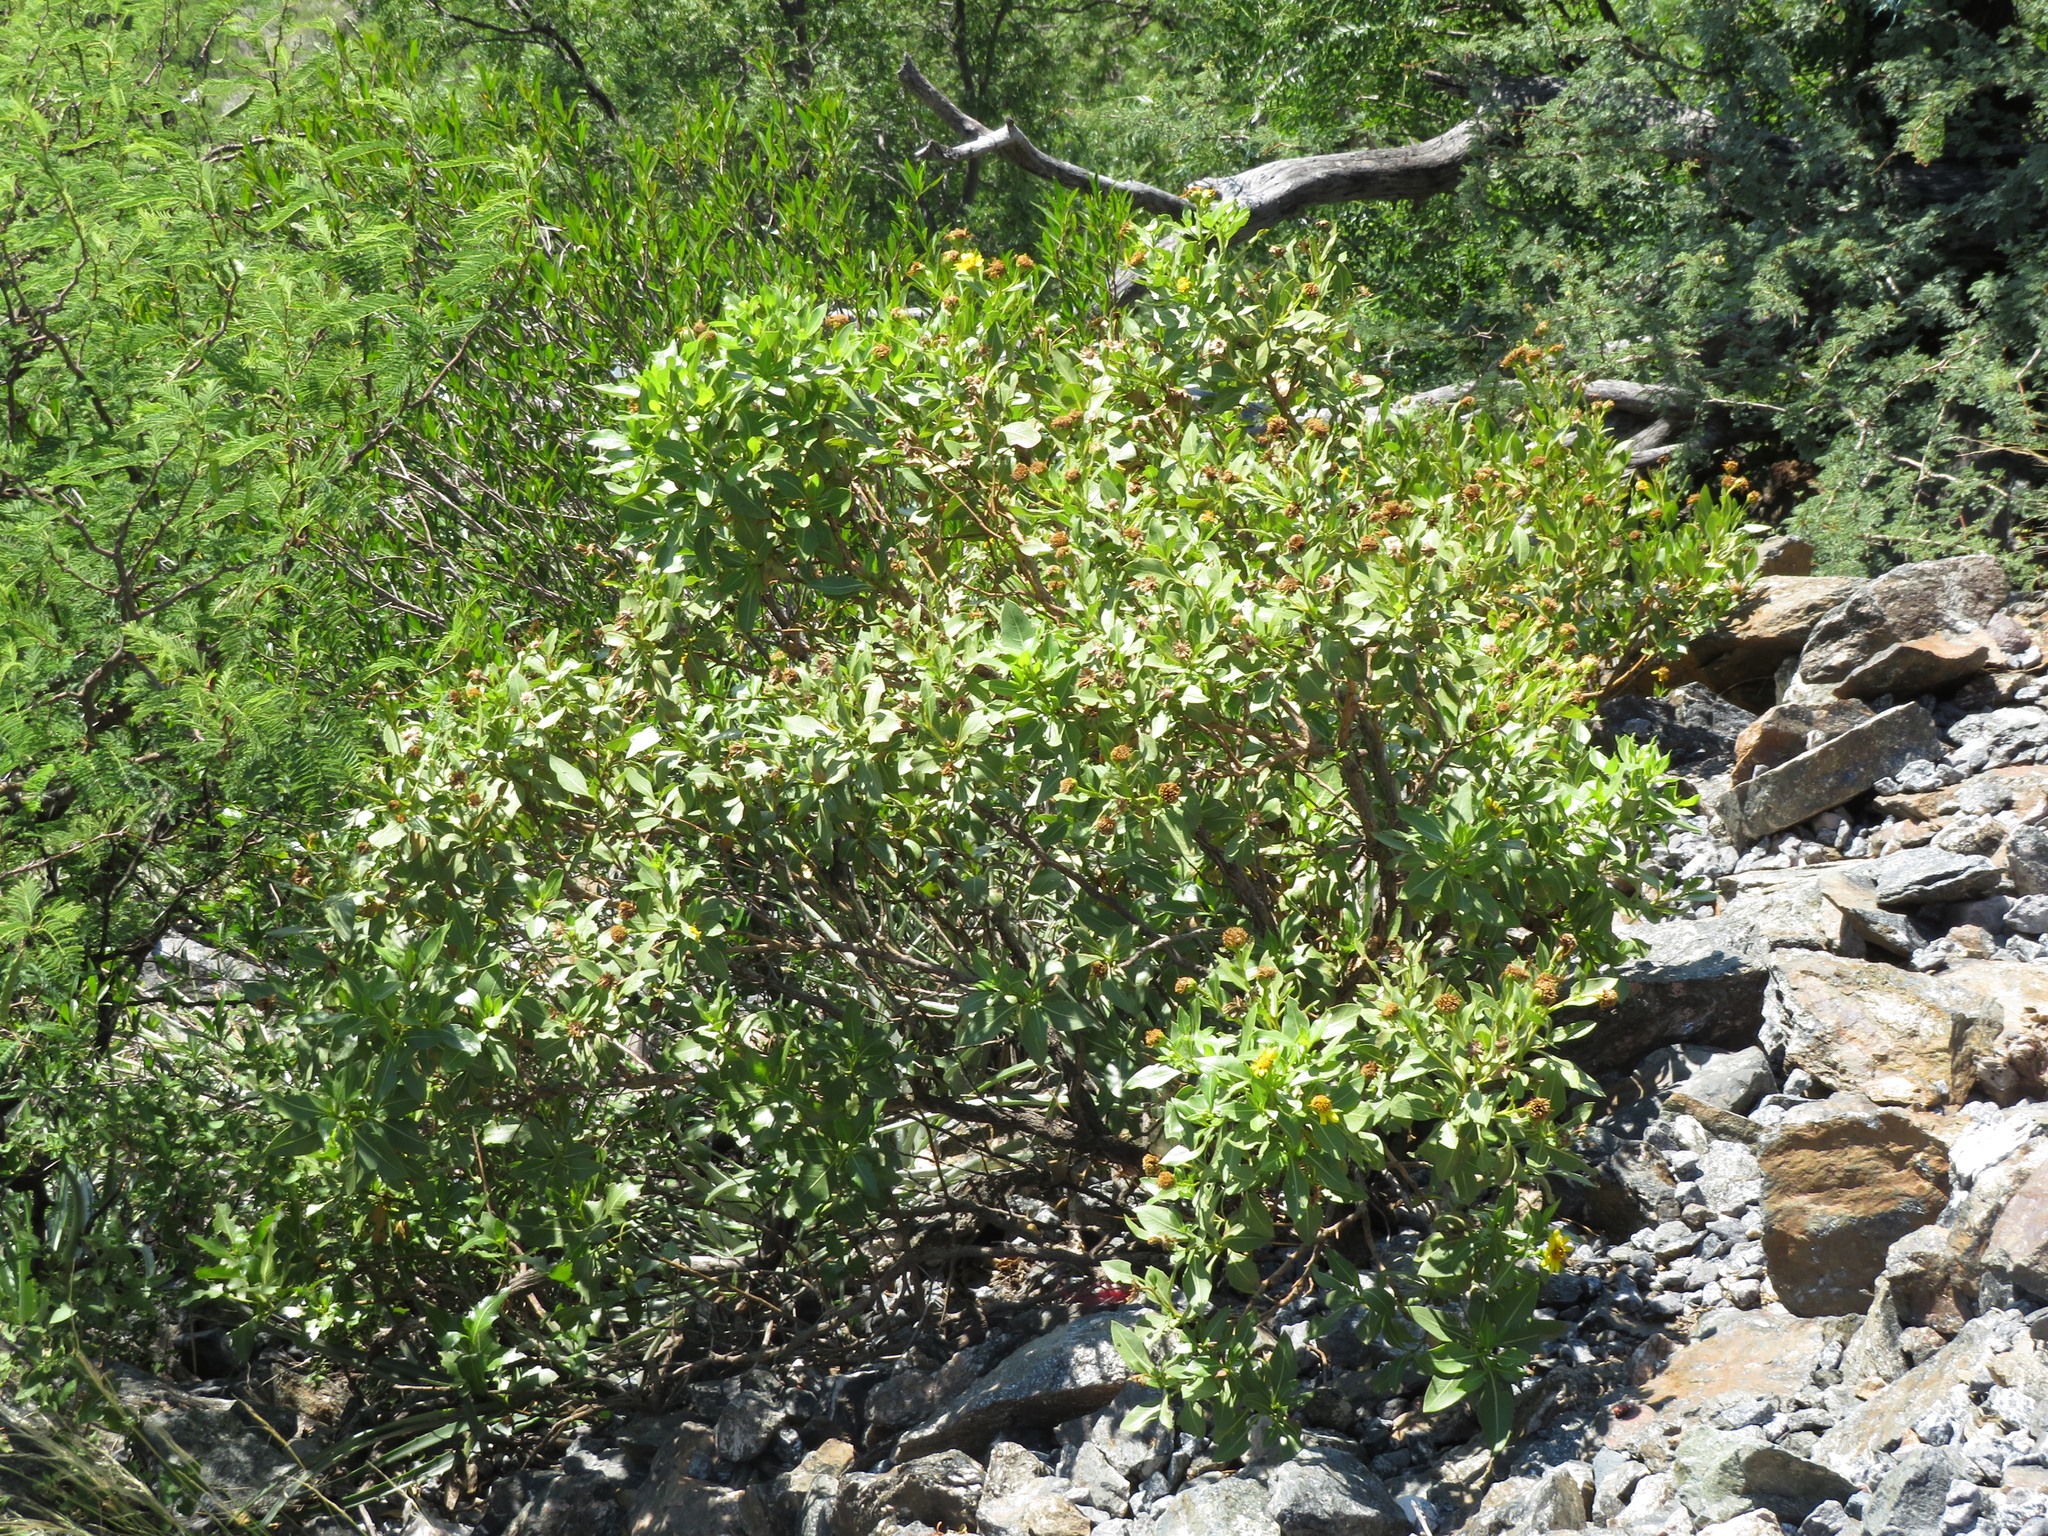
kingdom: Plantae
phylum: Tracheophyta
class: Magnoliopsida
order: Asterales
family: Asteraceae
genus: Flourensia
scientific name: Flourensia thurifera
